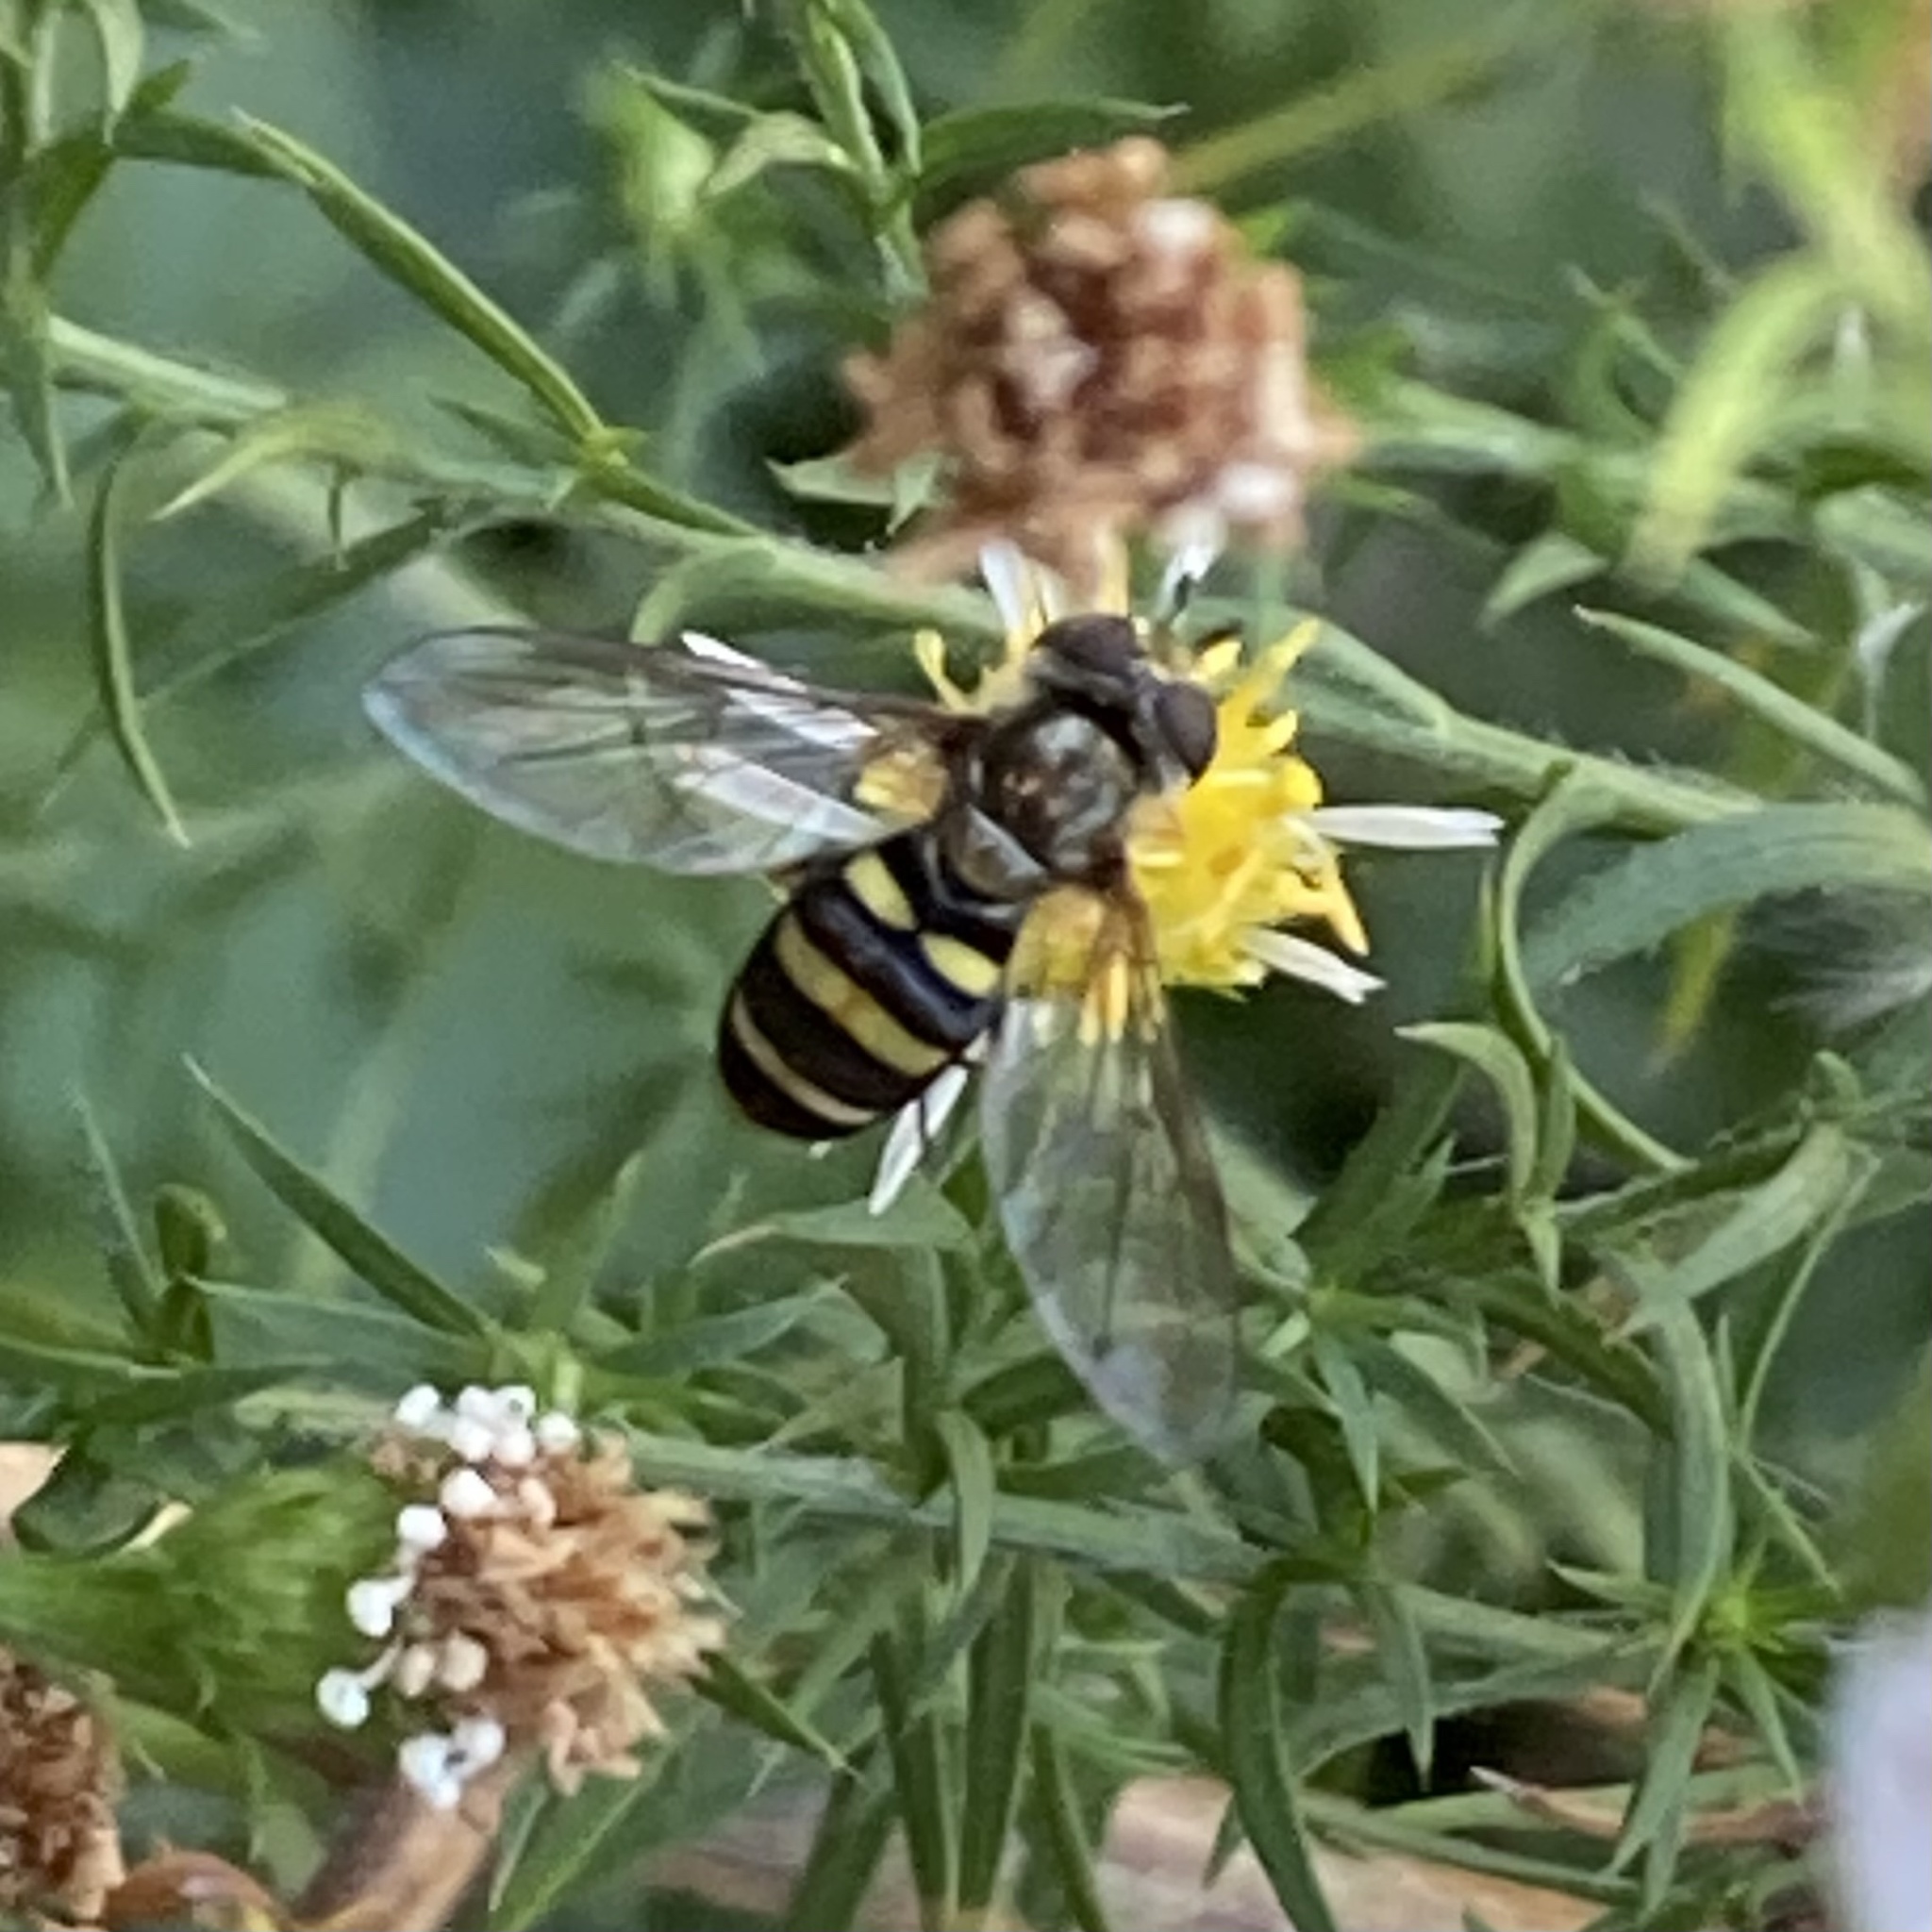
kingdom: Animalia
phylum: Arthropoda
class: Insecta
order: Diptera
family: Syrphidae
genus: Eupeodes
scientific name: Eupeodes
